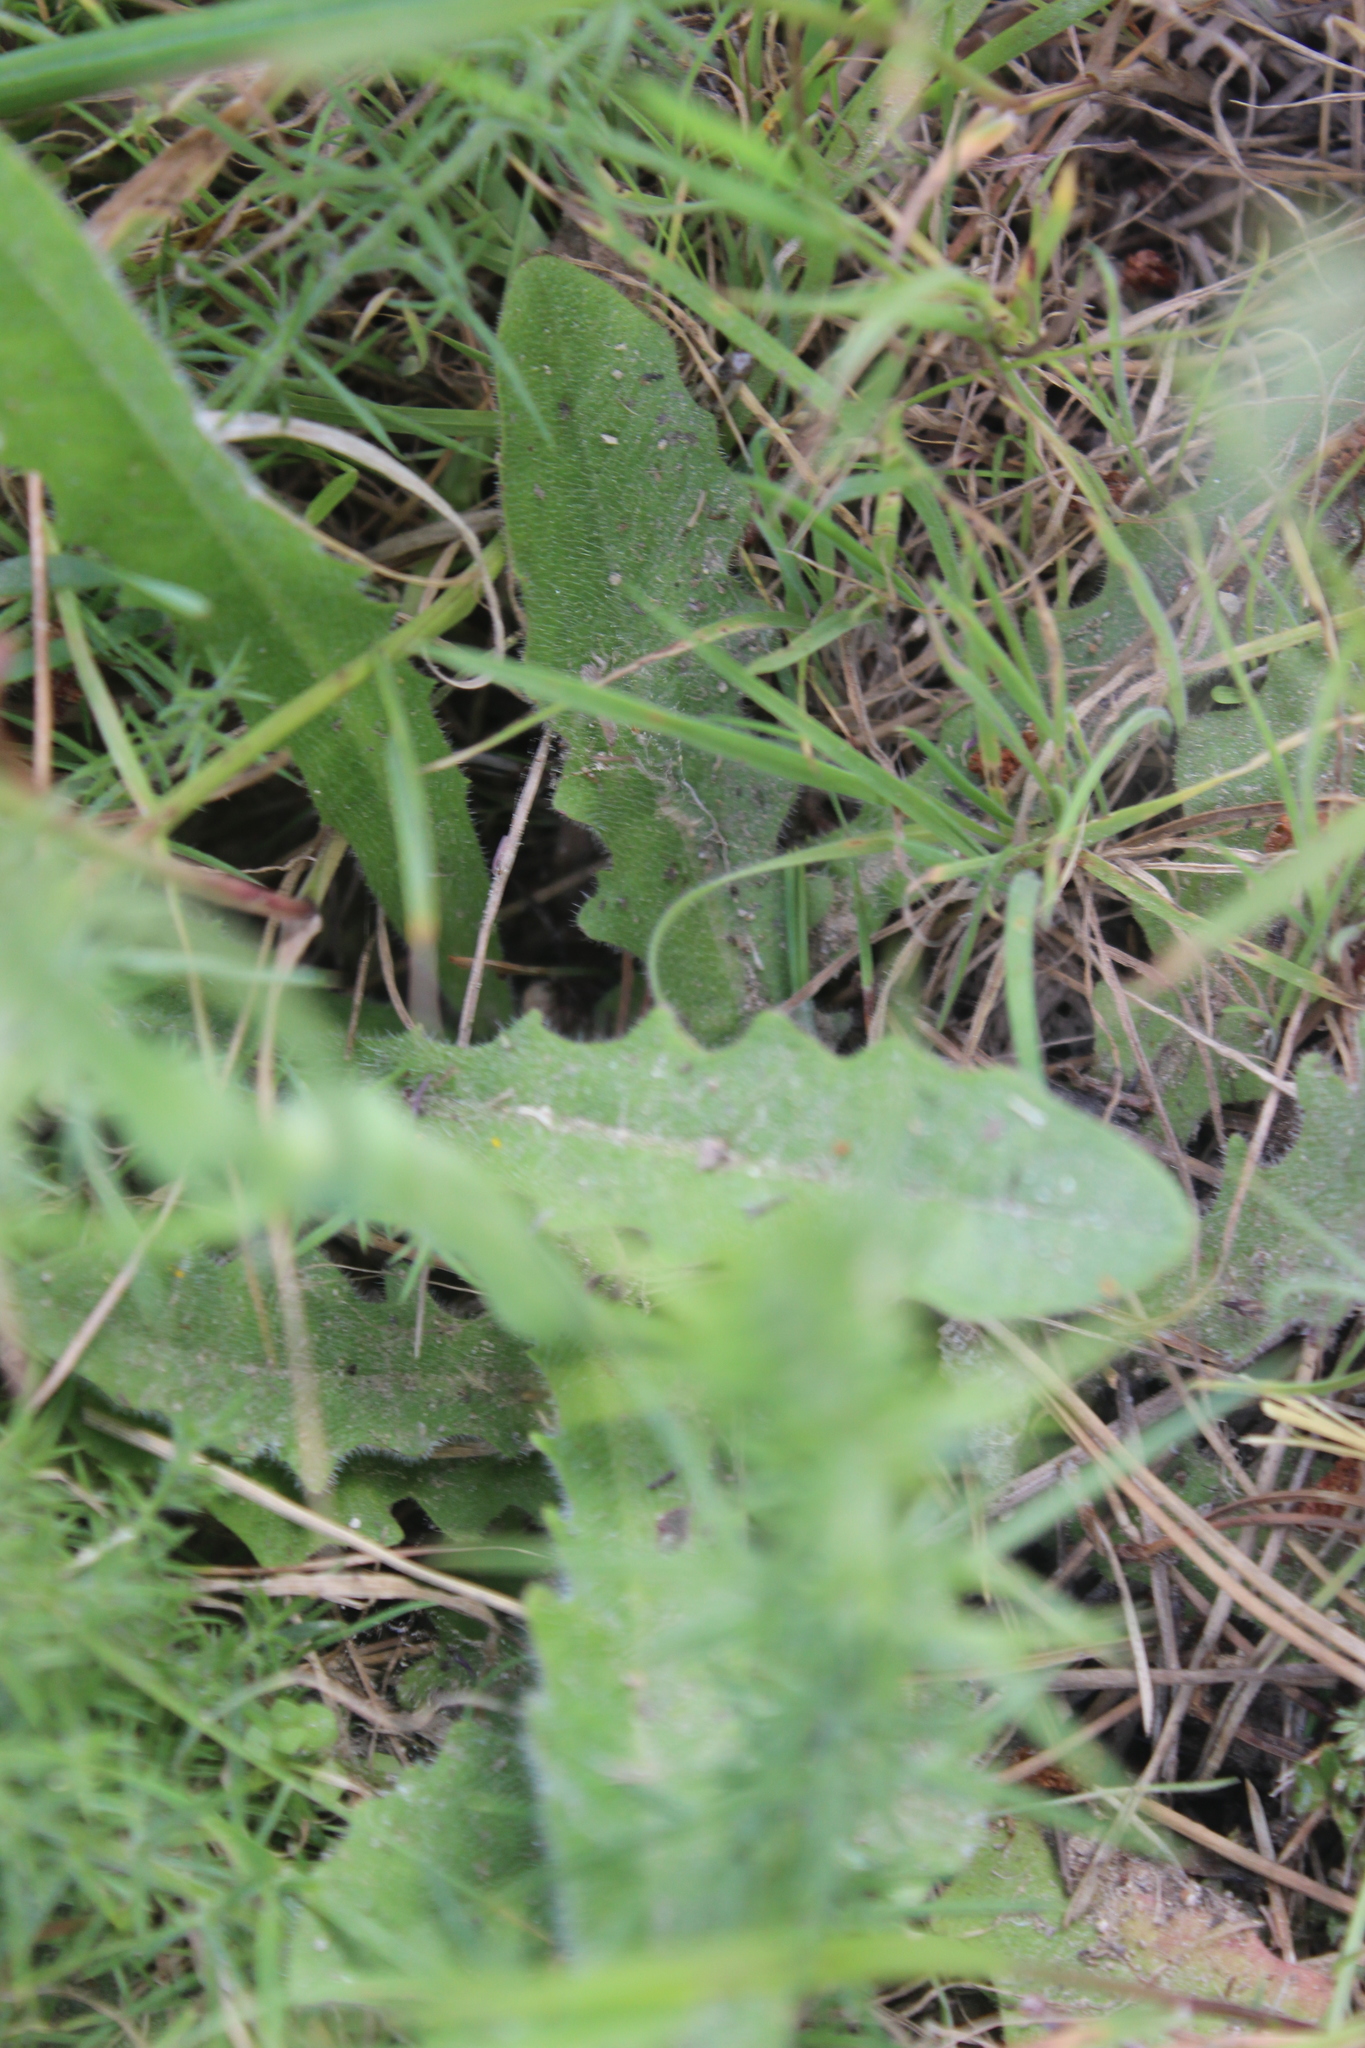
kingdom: Animalia
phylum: Arthropoda
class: Insecta
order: Hymenoptera
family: Cynipidae
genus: Phanacis
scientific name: Phanacis hypochoeridis
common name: Gall wasp
